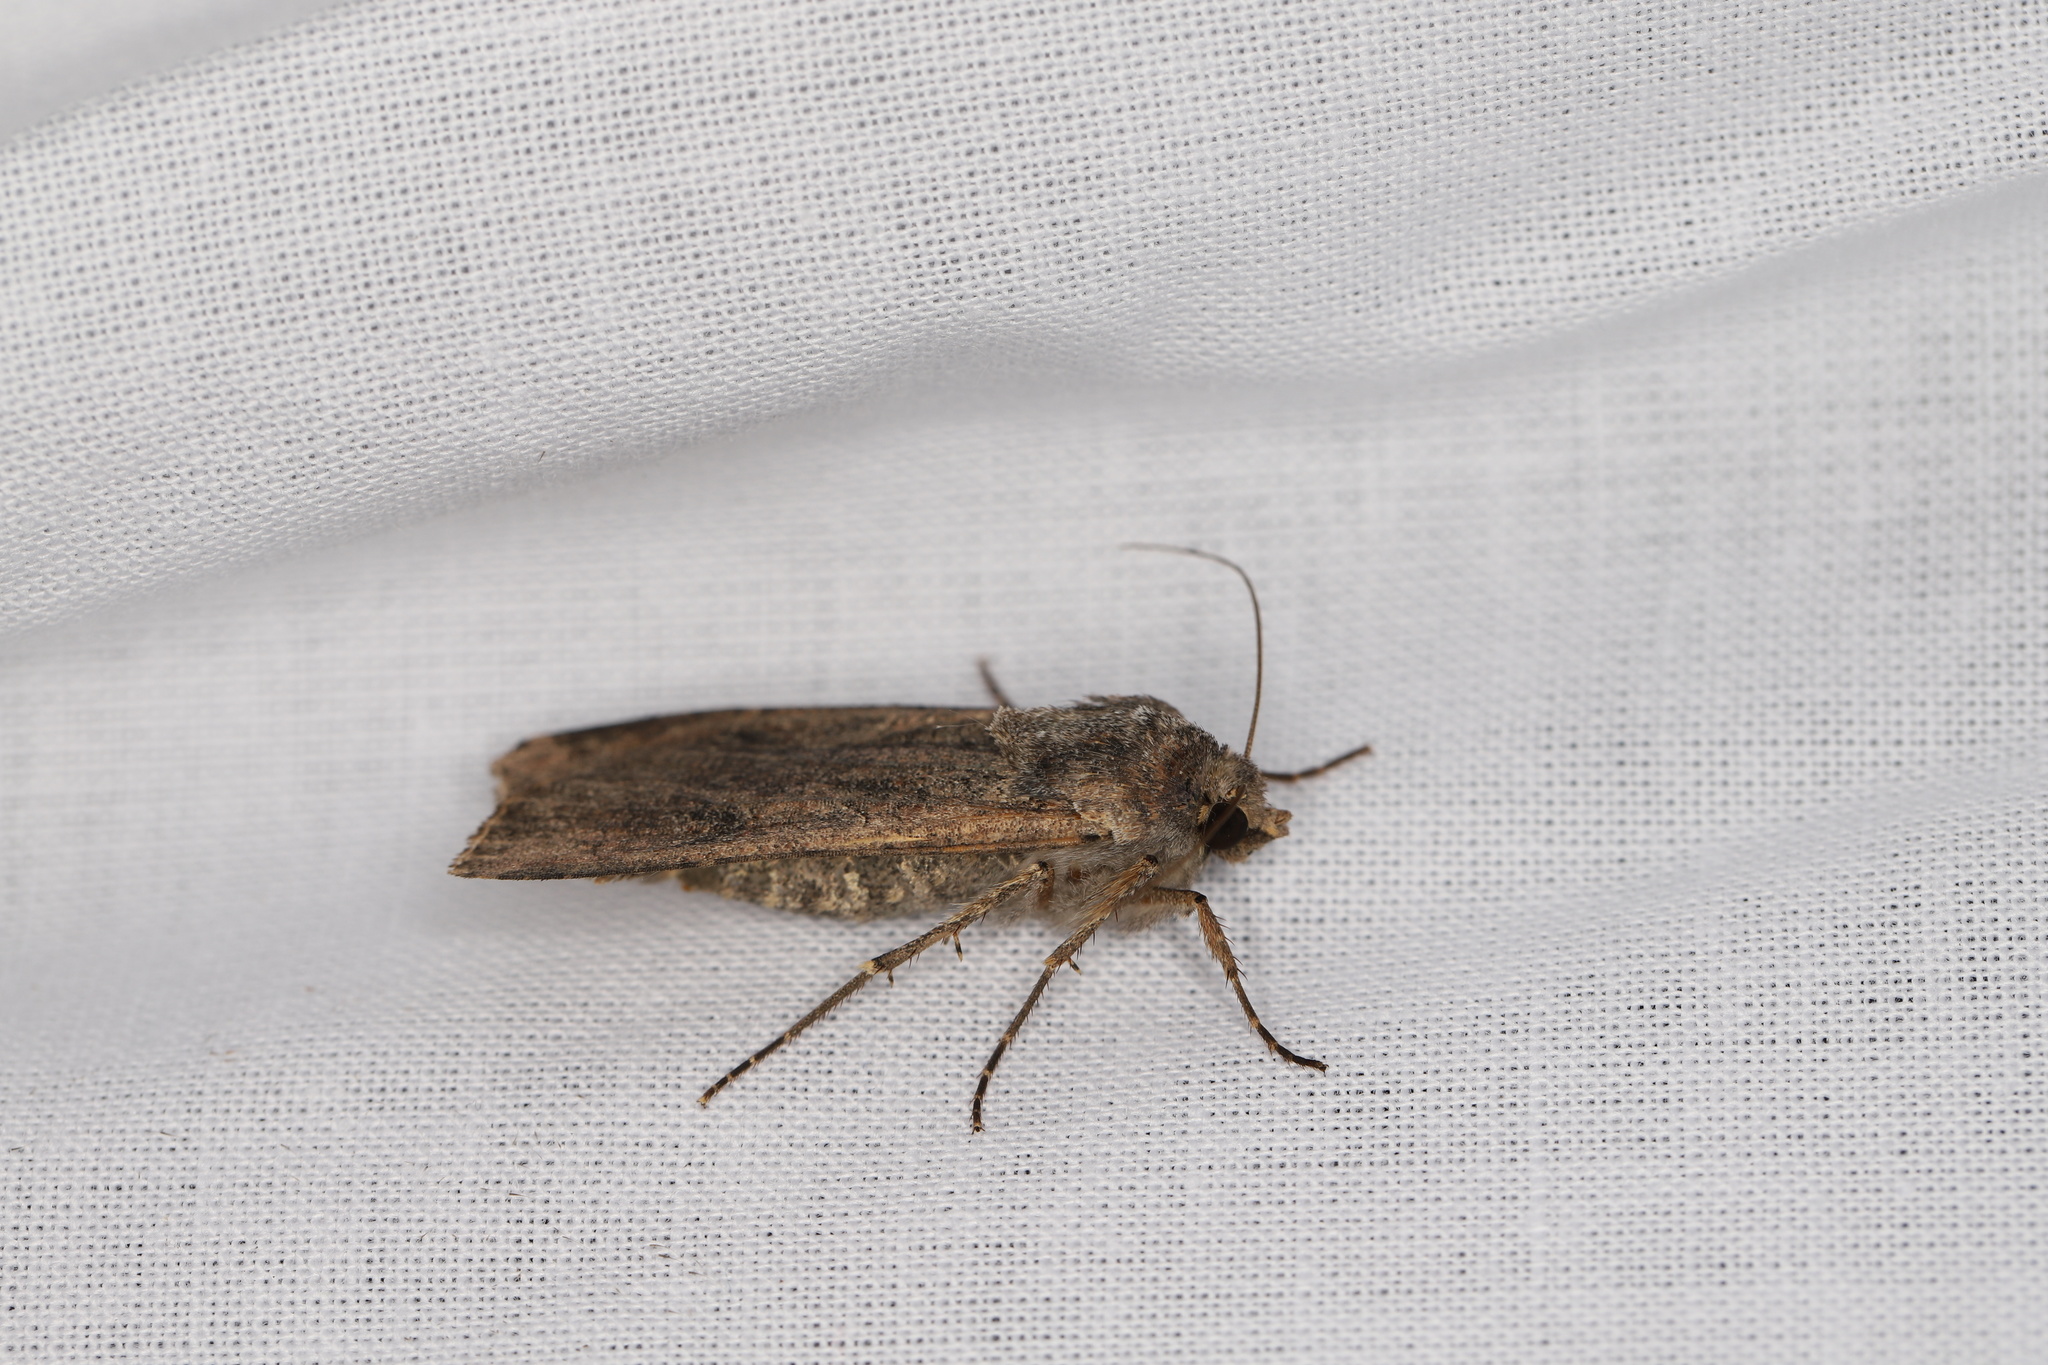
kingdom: Animalia
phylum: Arthropoda
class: Insecta
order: Lepidoptera
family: Noctuidae
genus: Peridroma
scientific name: Peridroma saucia
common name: Pearly underwing
